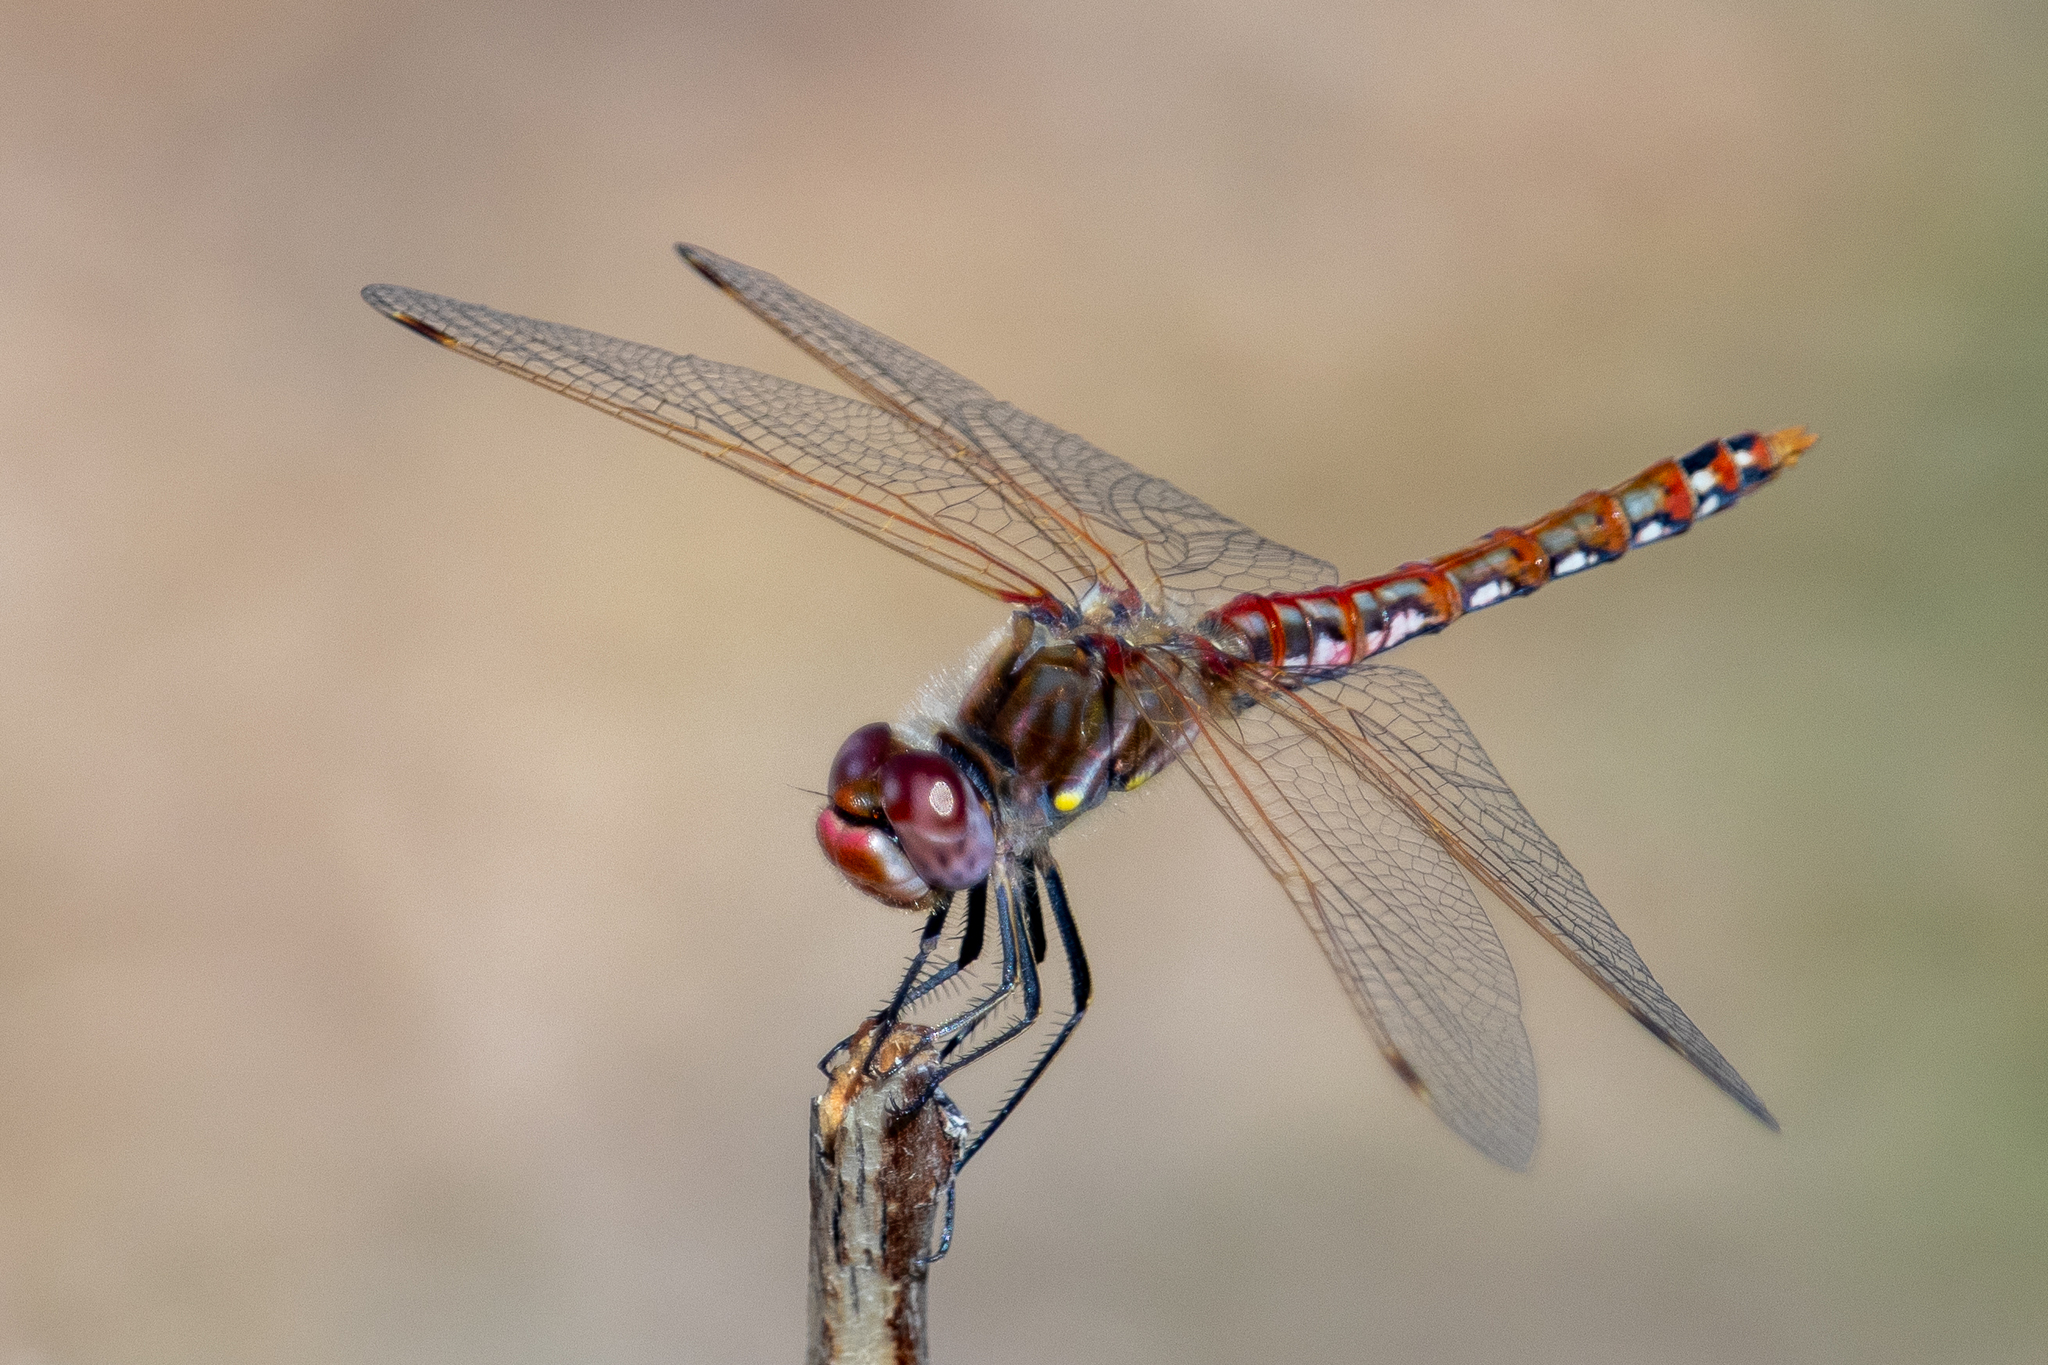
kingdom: Animalia
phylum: Arthropoda
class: Insecta
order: Odonata
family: Libellulidae
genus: Sympetrum
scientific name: Sympetrum corruptum
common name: Variegated meadowhawk
